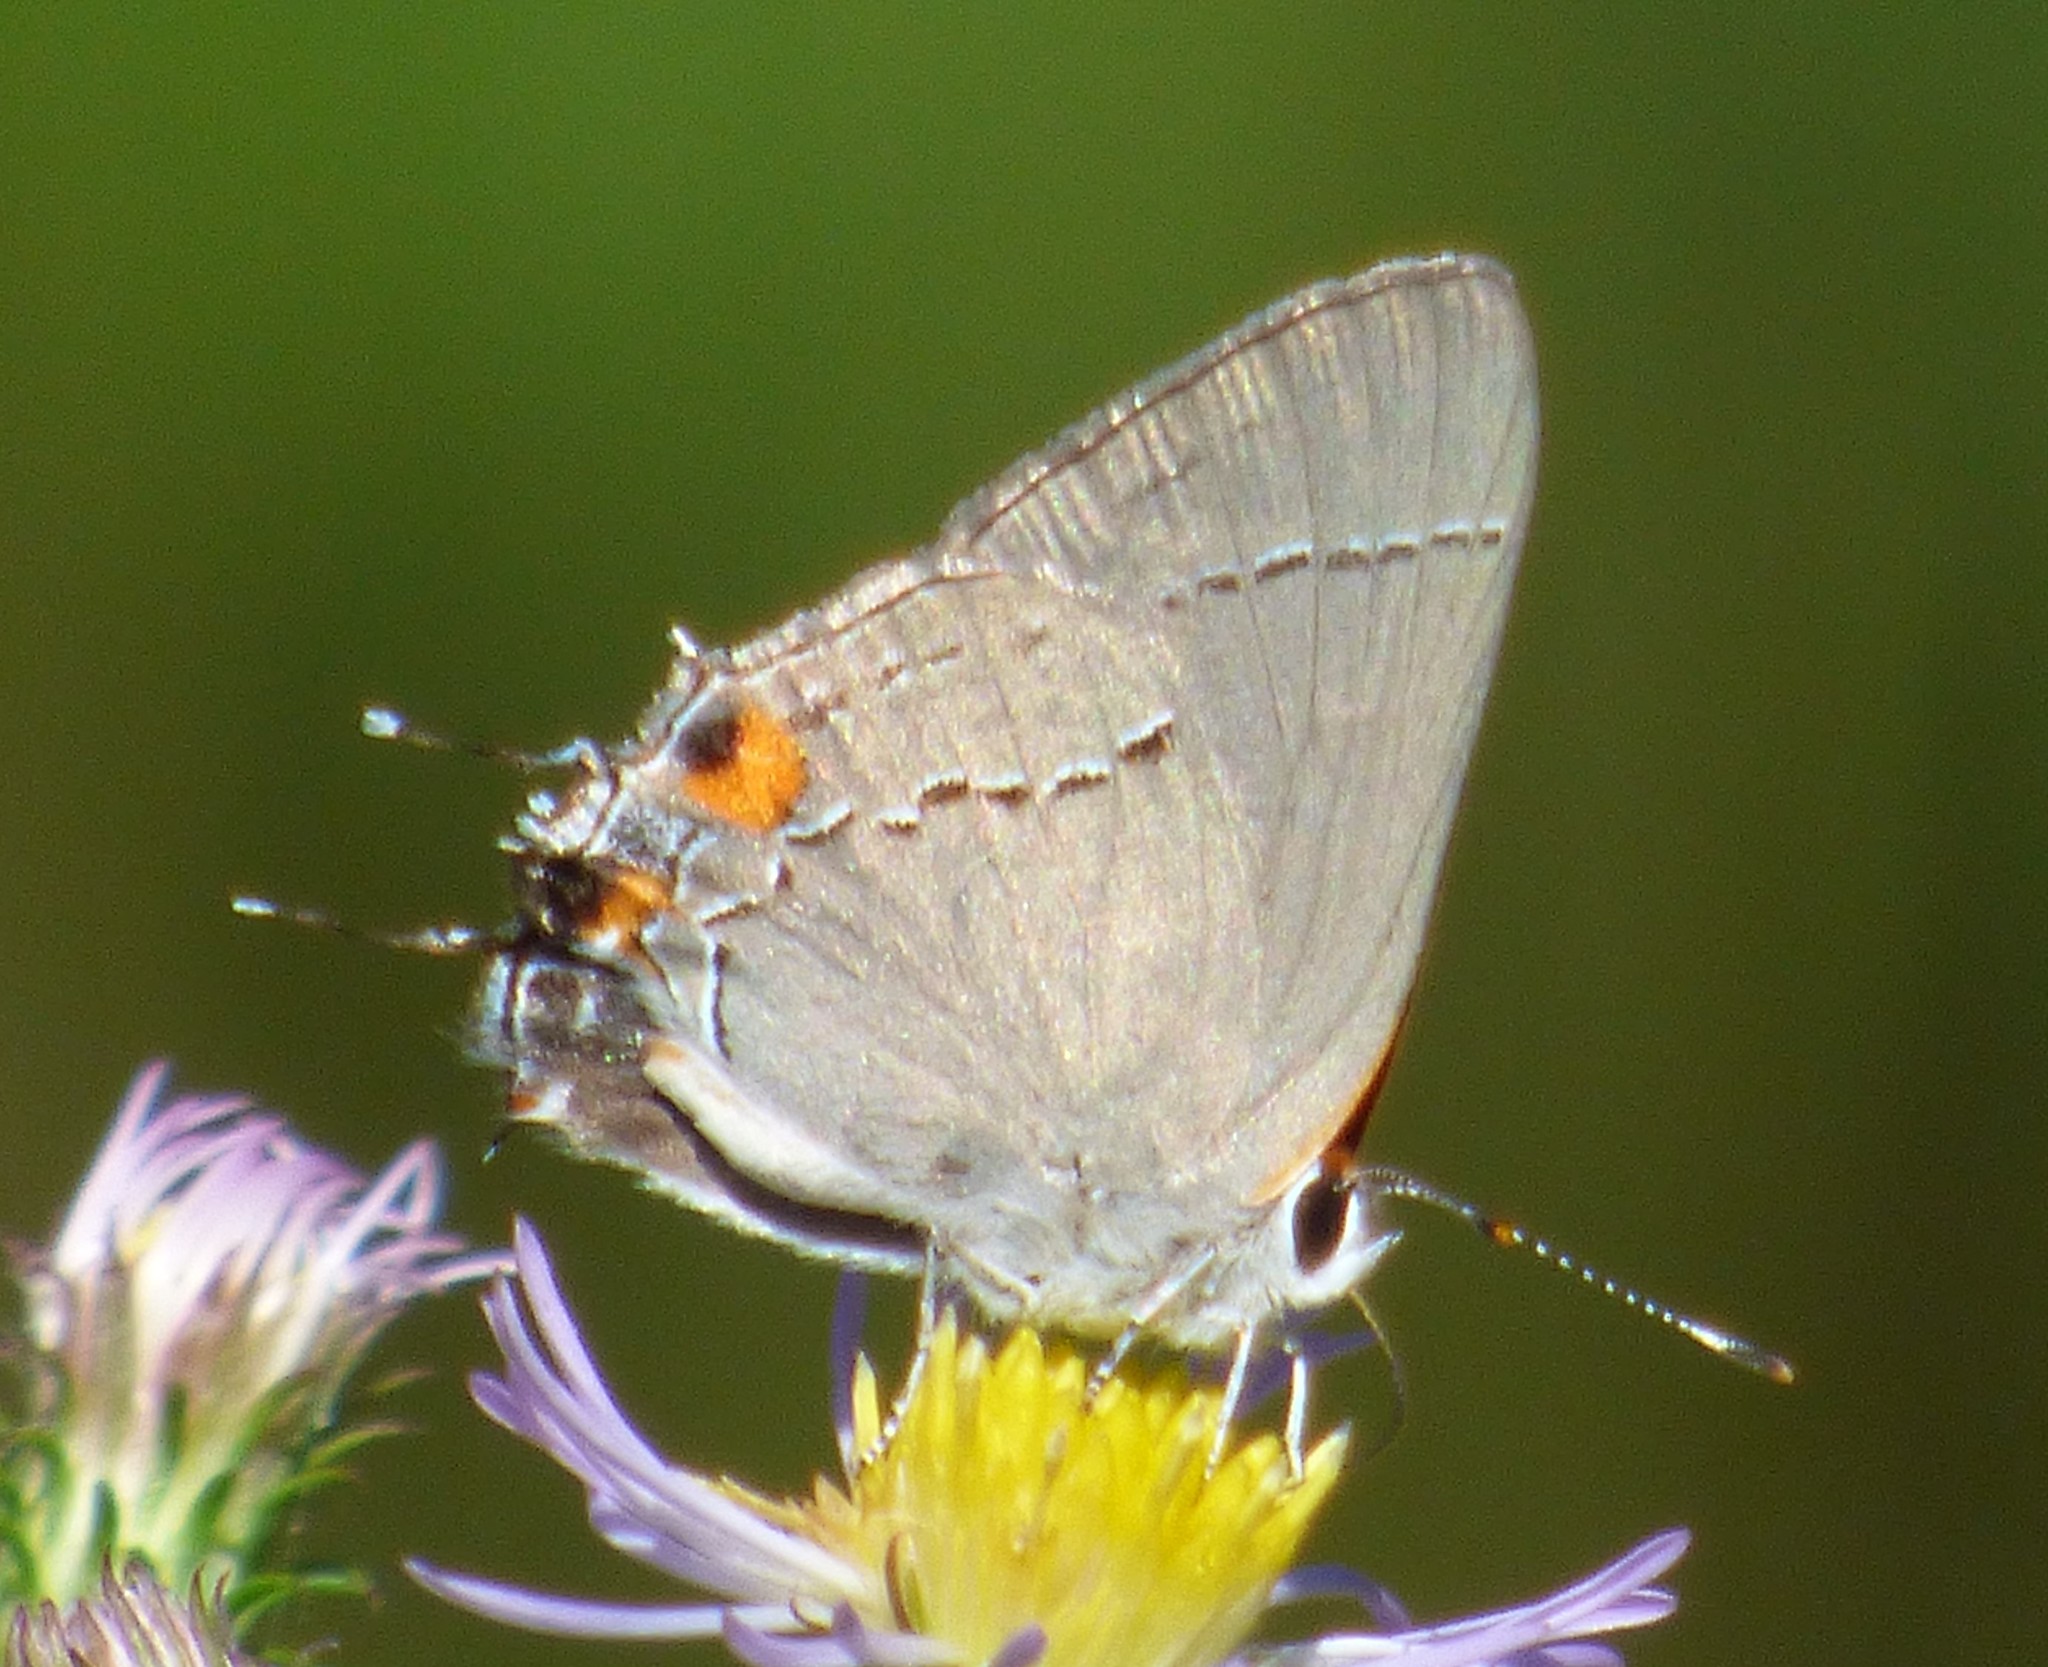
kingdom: Animalia
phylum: Arthropoda
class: Insecta
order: Lepidoptera
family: Lycaenidae
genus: Strymon
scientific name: Strymon melinus
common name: Gray hairstreak
